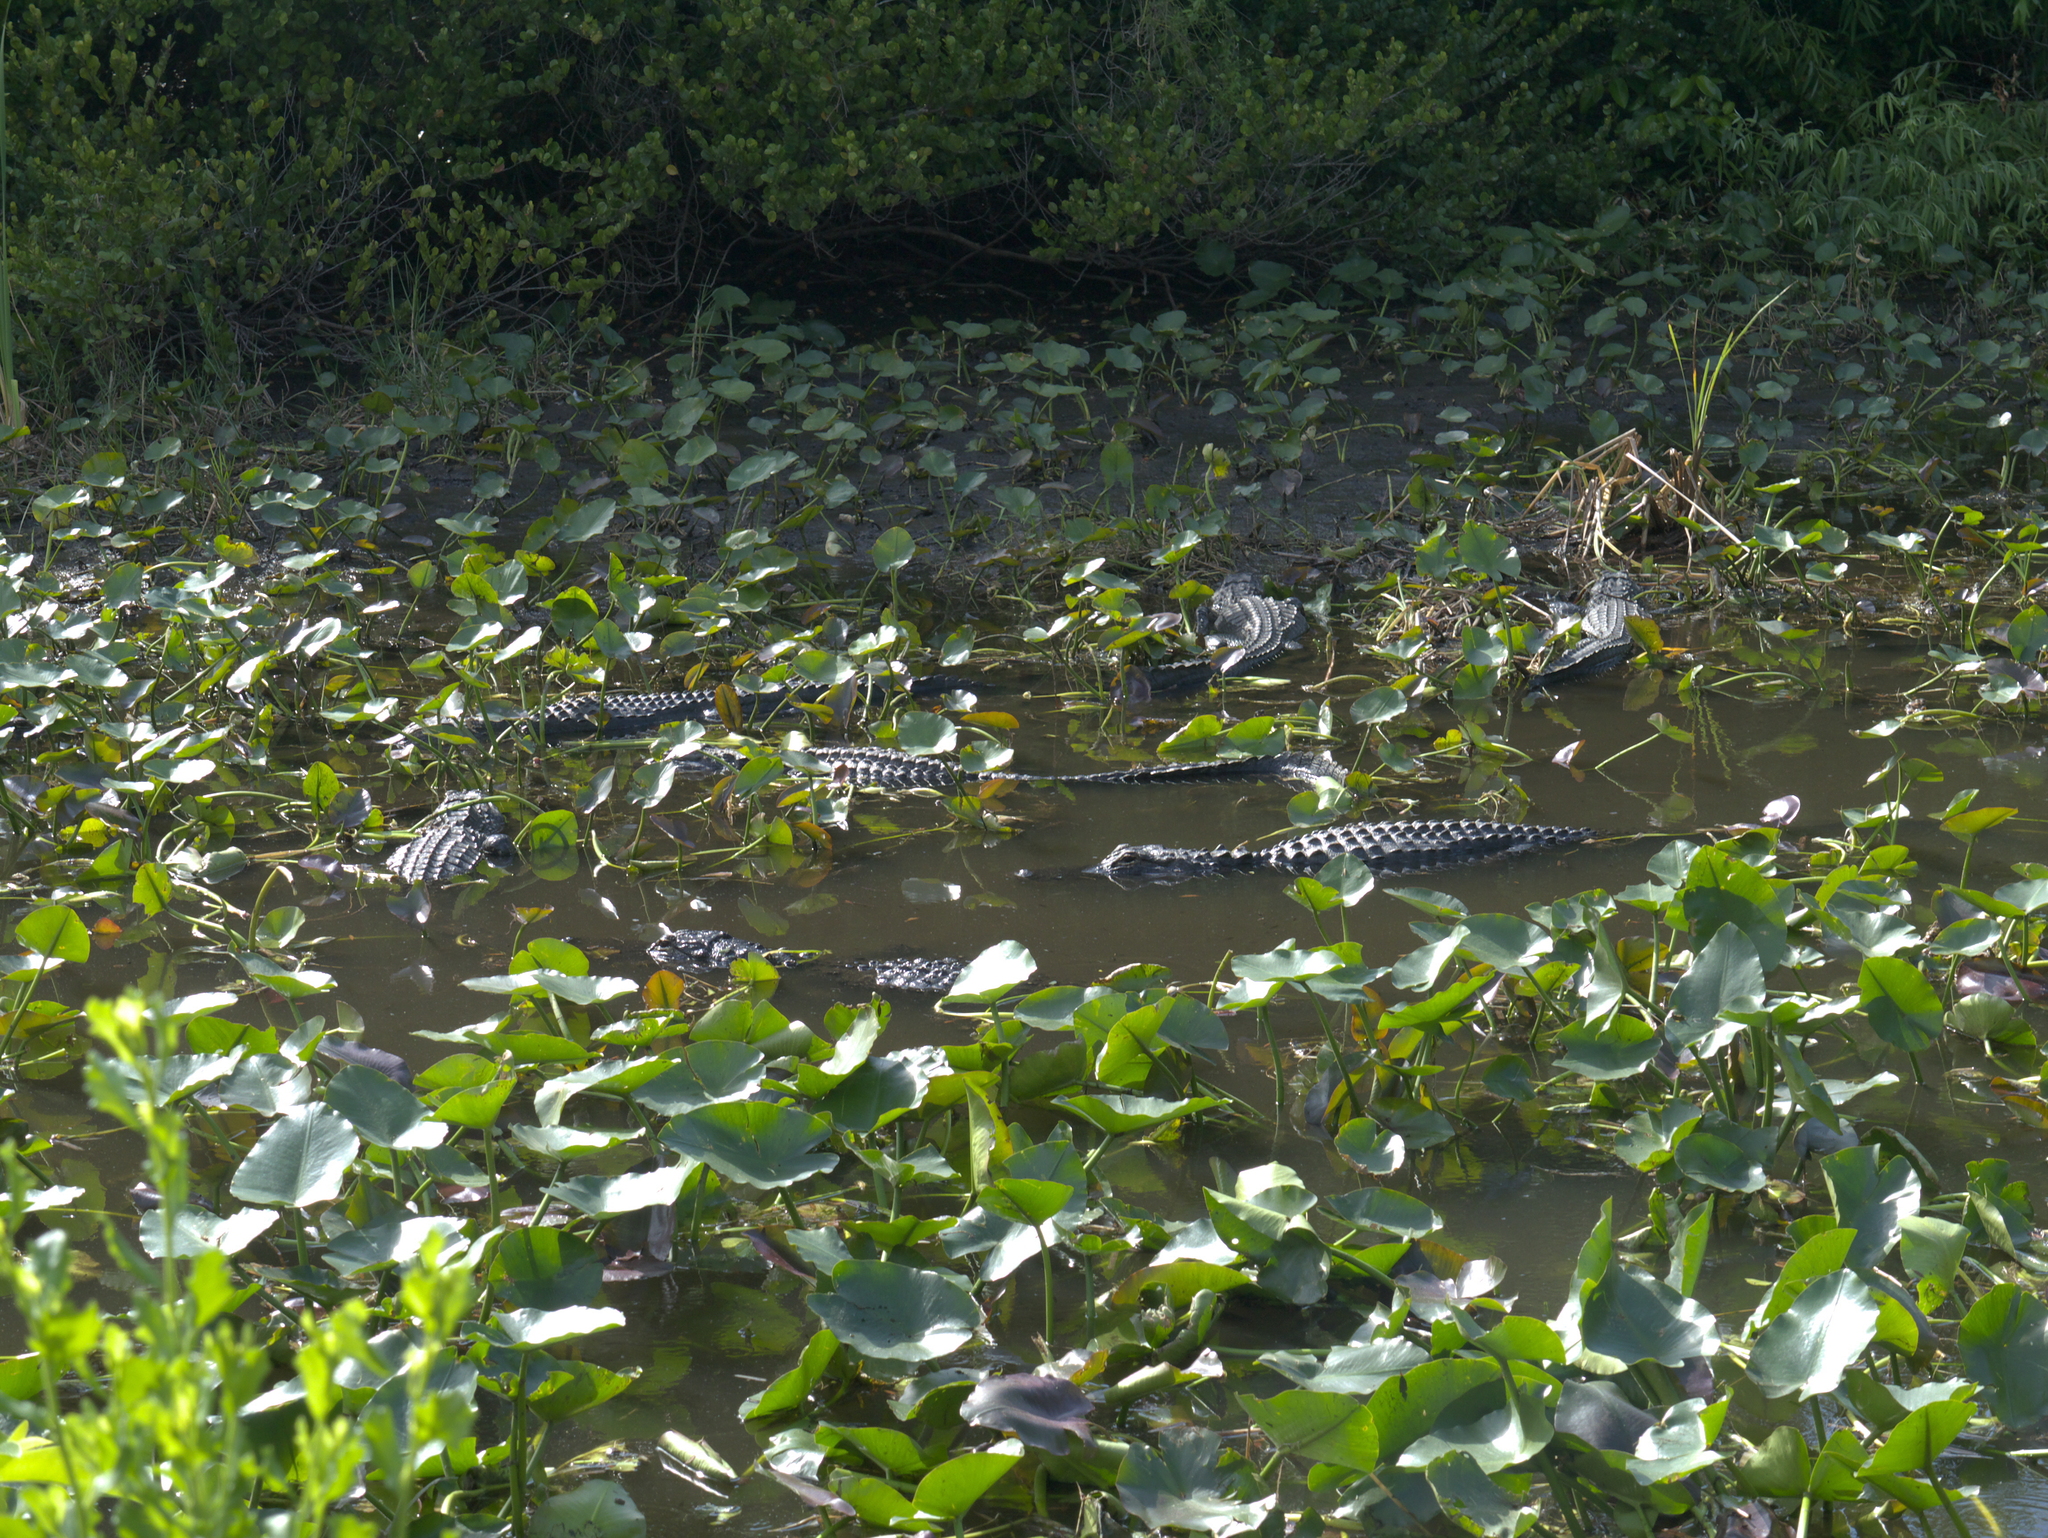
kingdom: Animalia
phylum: Chordata
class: Crocodylia
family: Alligatoridae
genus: Alligator
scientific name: Alligator mississippiensis
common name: American alligator
